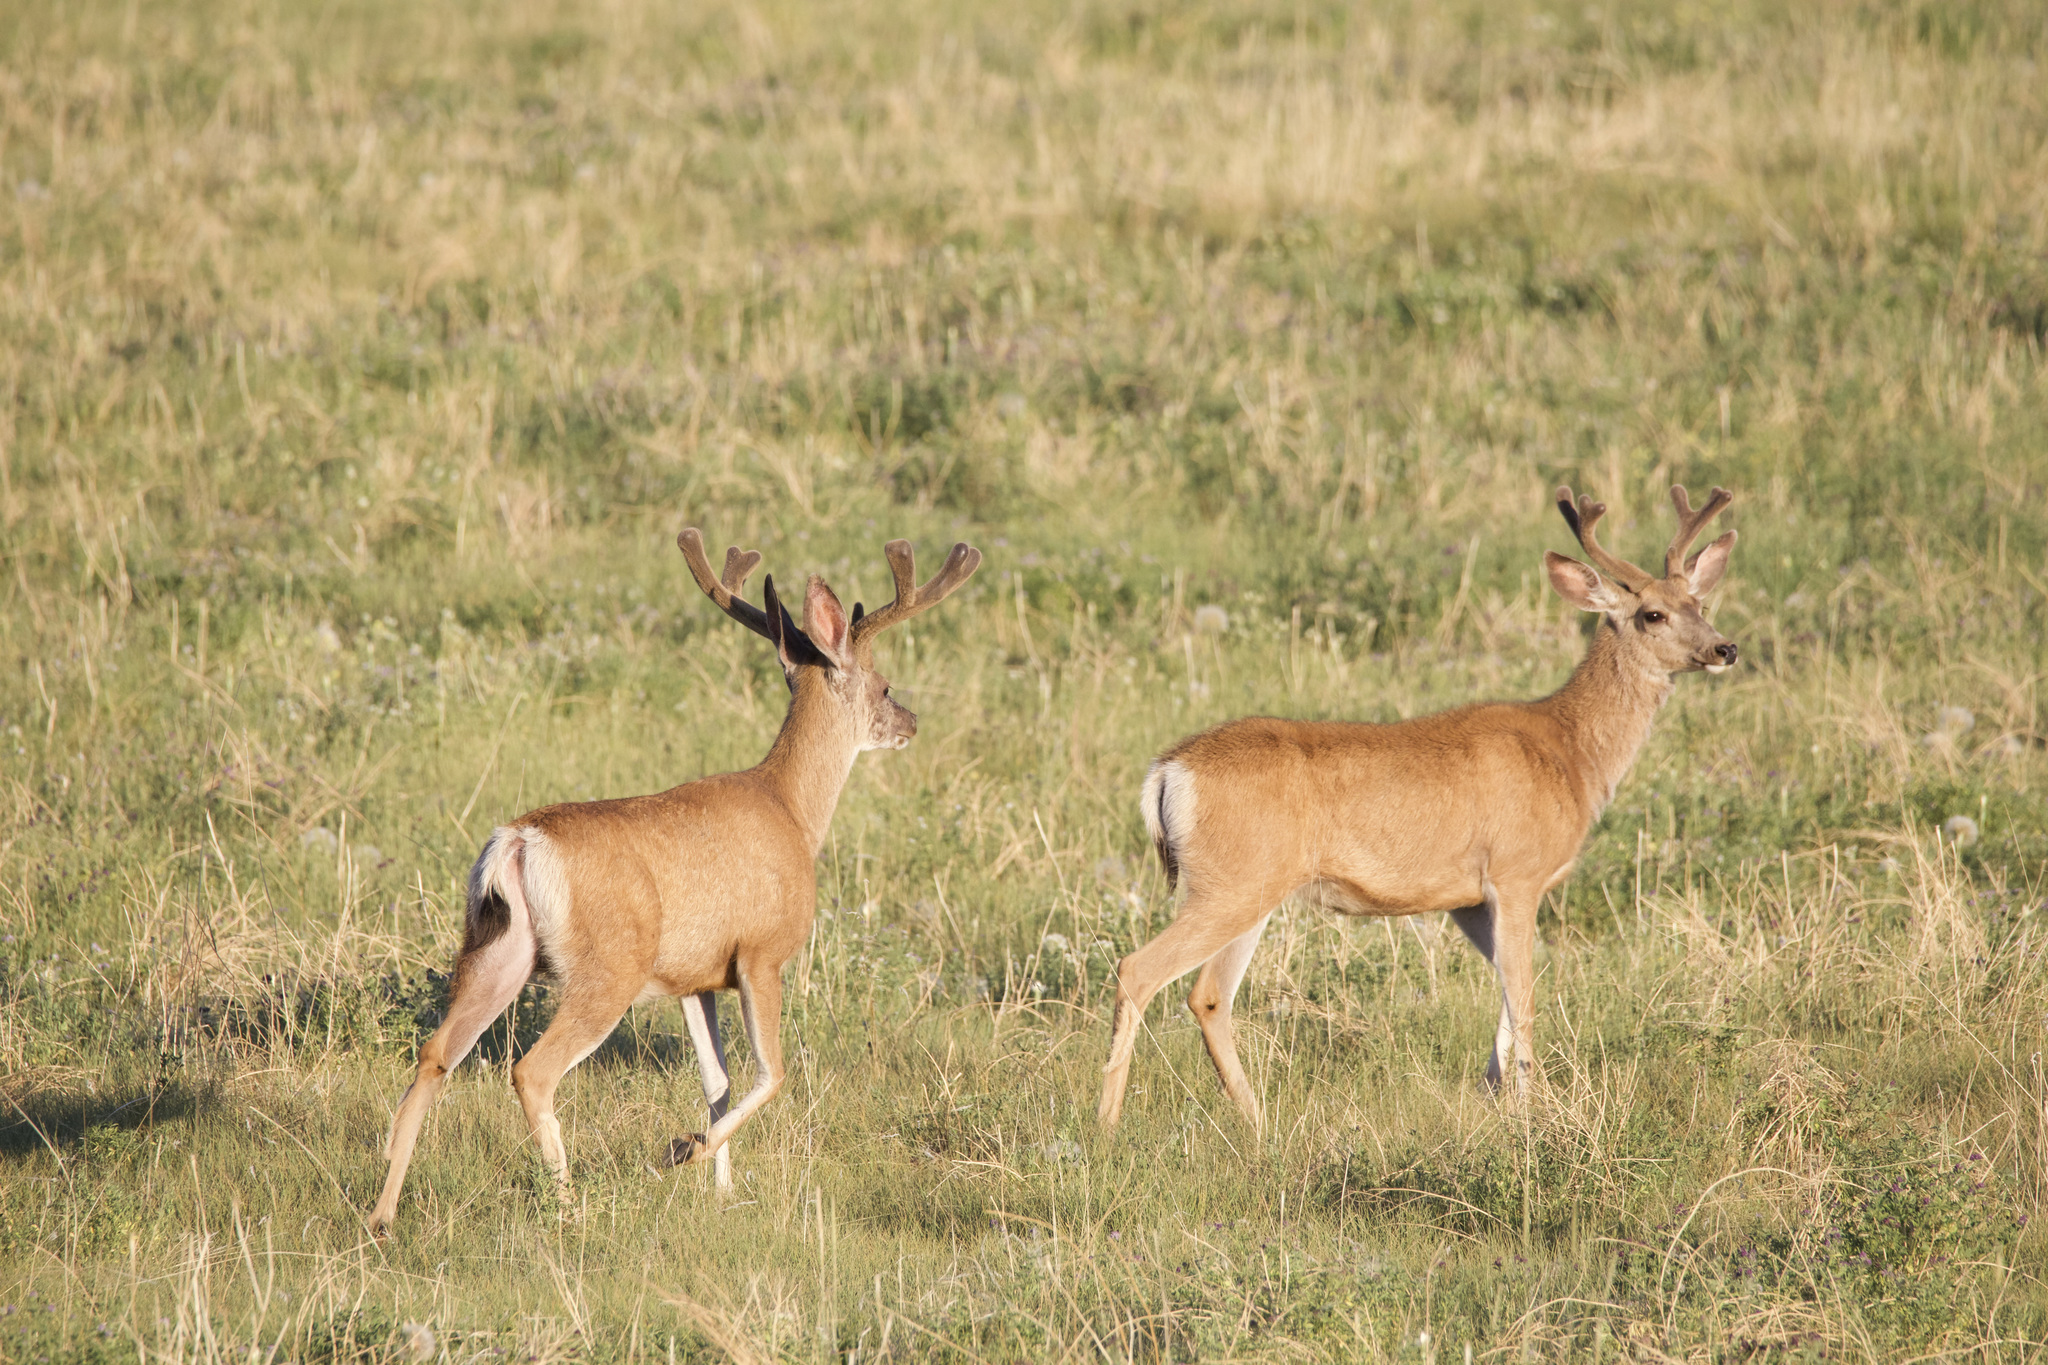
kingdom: Animalia
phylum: Chordata
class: Mammalia
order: Artiodactyla
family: Cervidae
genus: Odocoileus
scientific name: Odocoileus hemionus
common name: Mule deer
